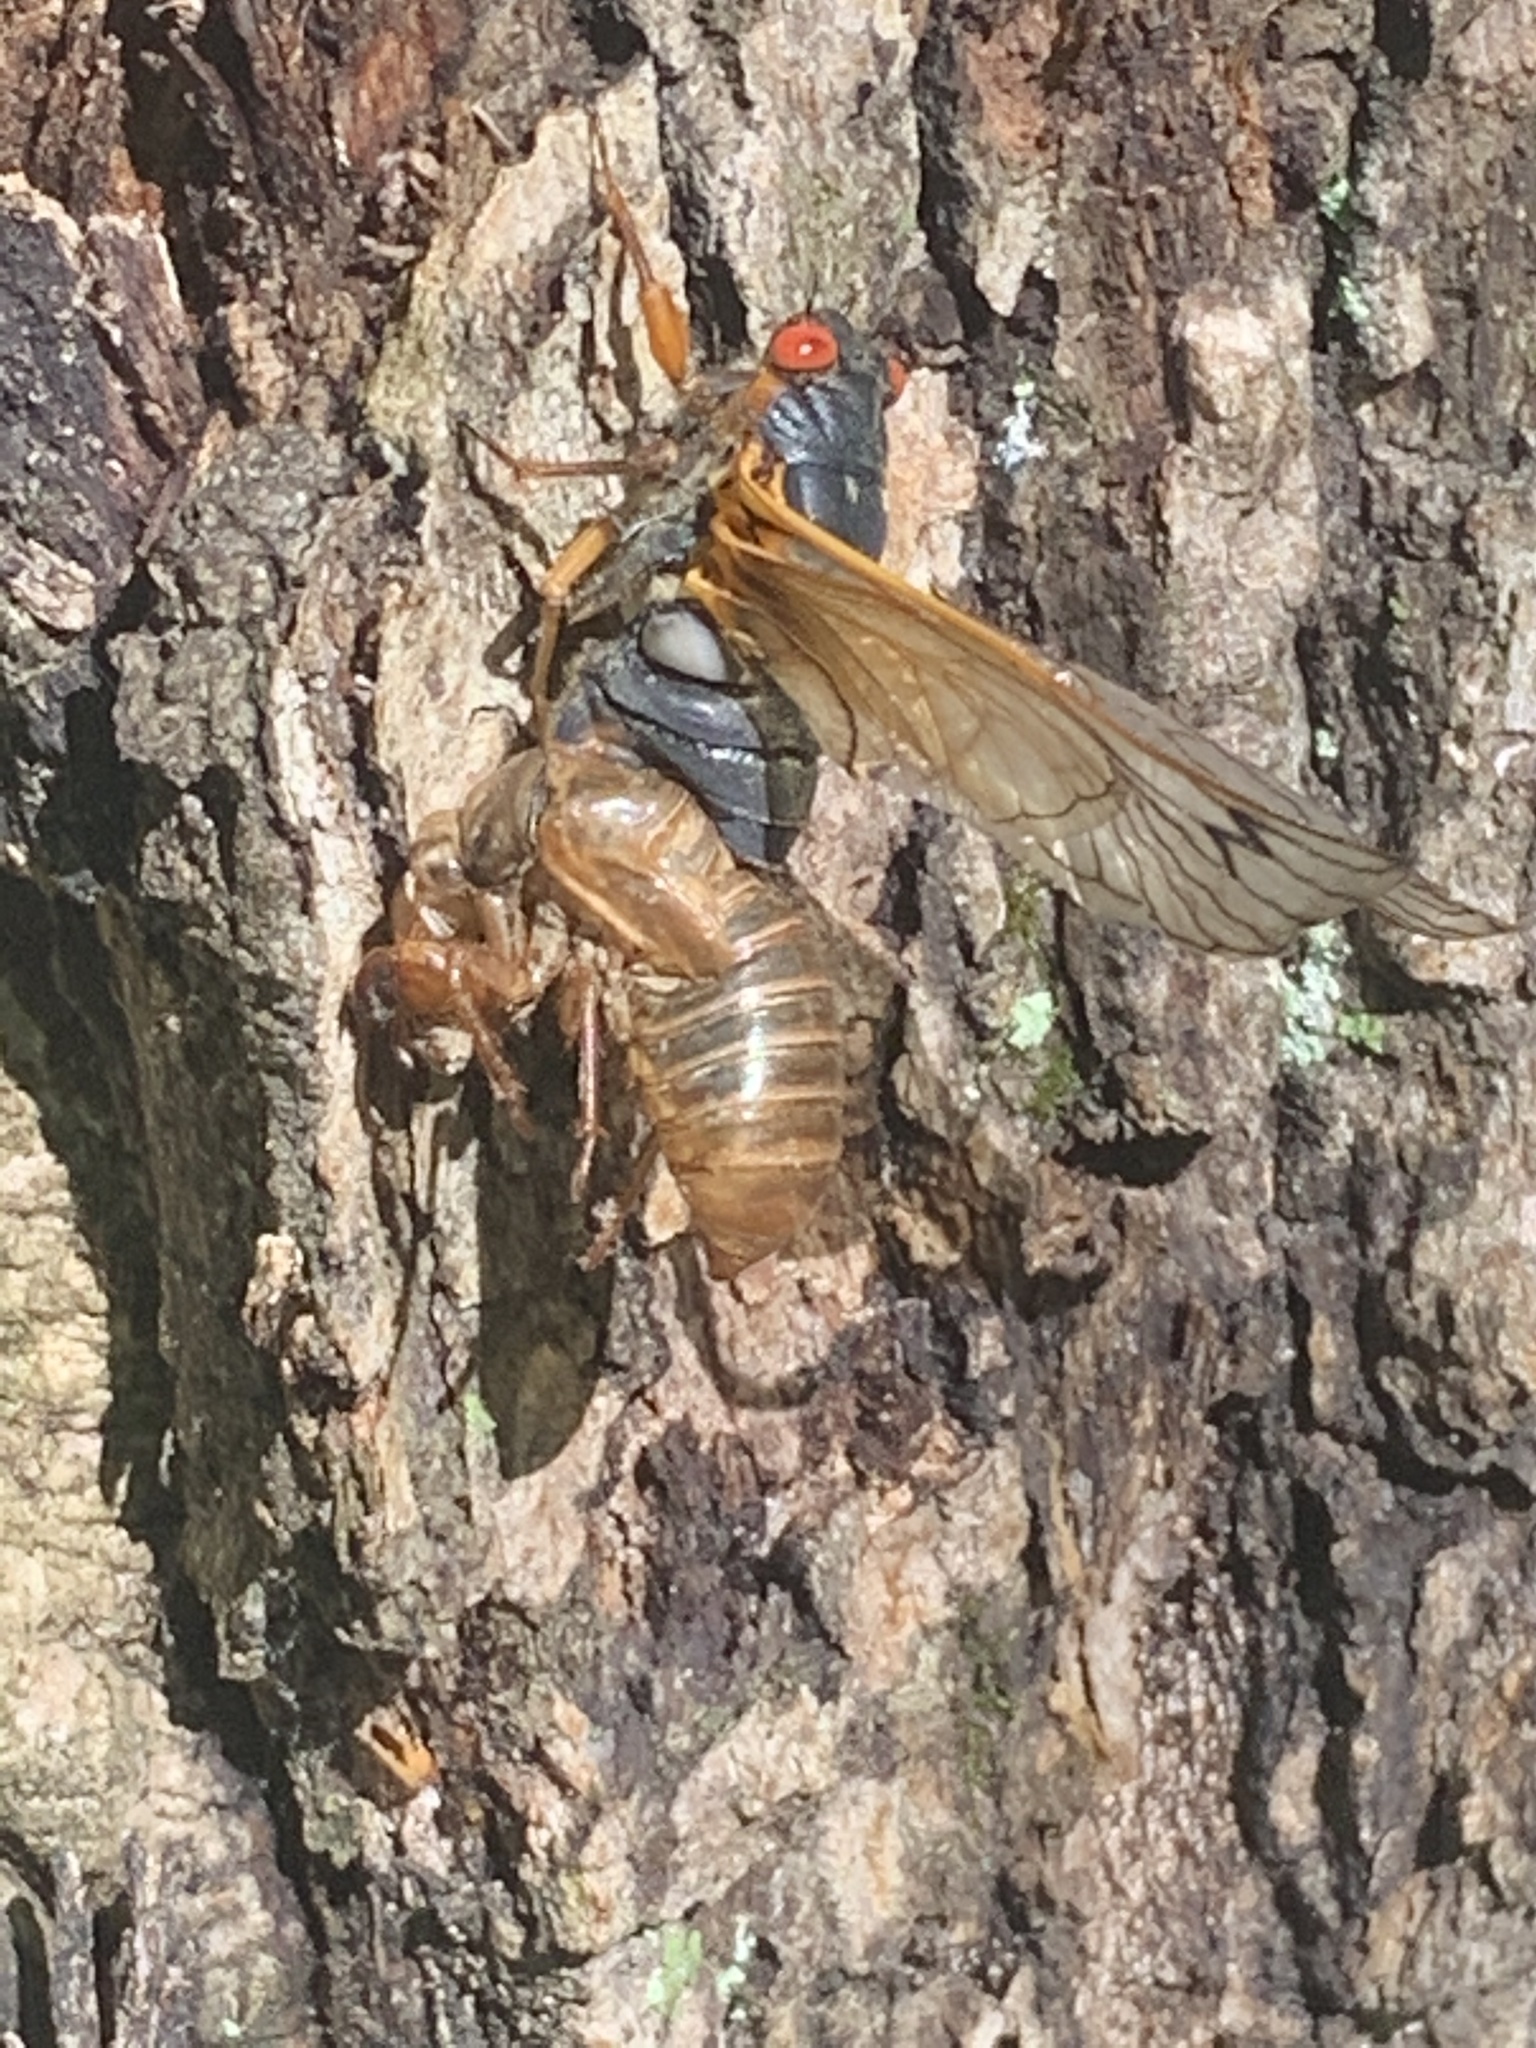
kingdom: Animalia
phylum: Arthropoda
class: Insecta
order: Hemiptera
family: Cicadidae
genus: Magicicada
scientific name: Magicicada septendecim
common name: Periodical cicada
